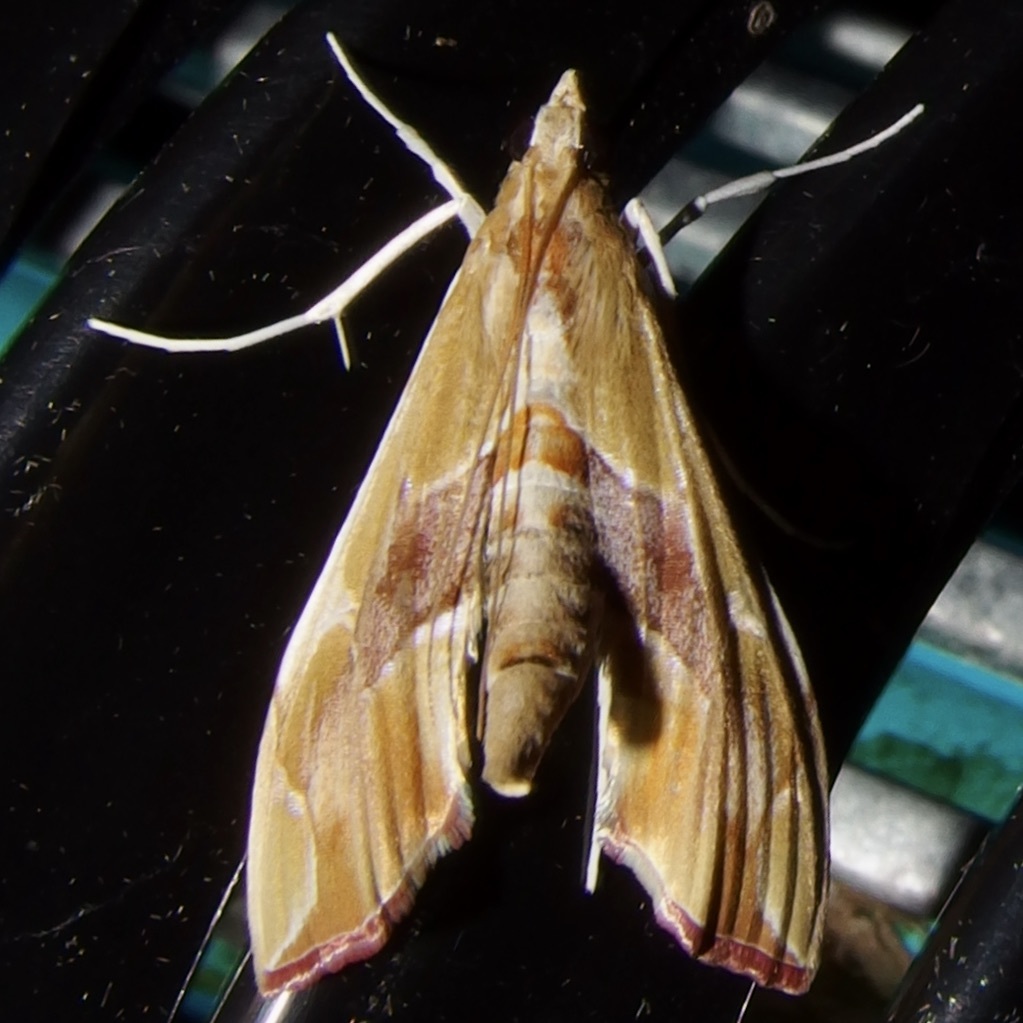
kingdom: Animalia
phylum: Arthropoda
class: Insecta
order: Lepidoptera
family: Crambidae
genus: Agathodes
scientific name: Agathodes monstralis
